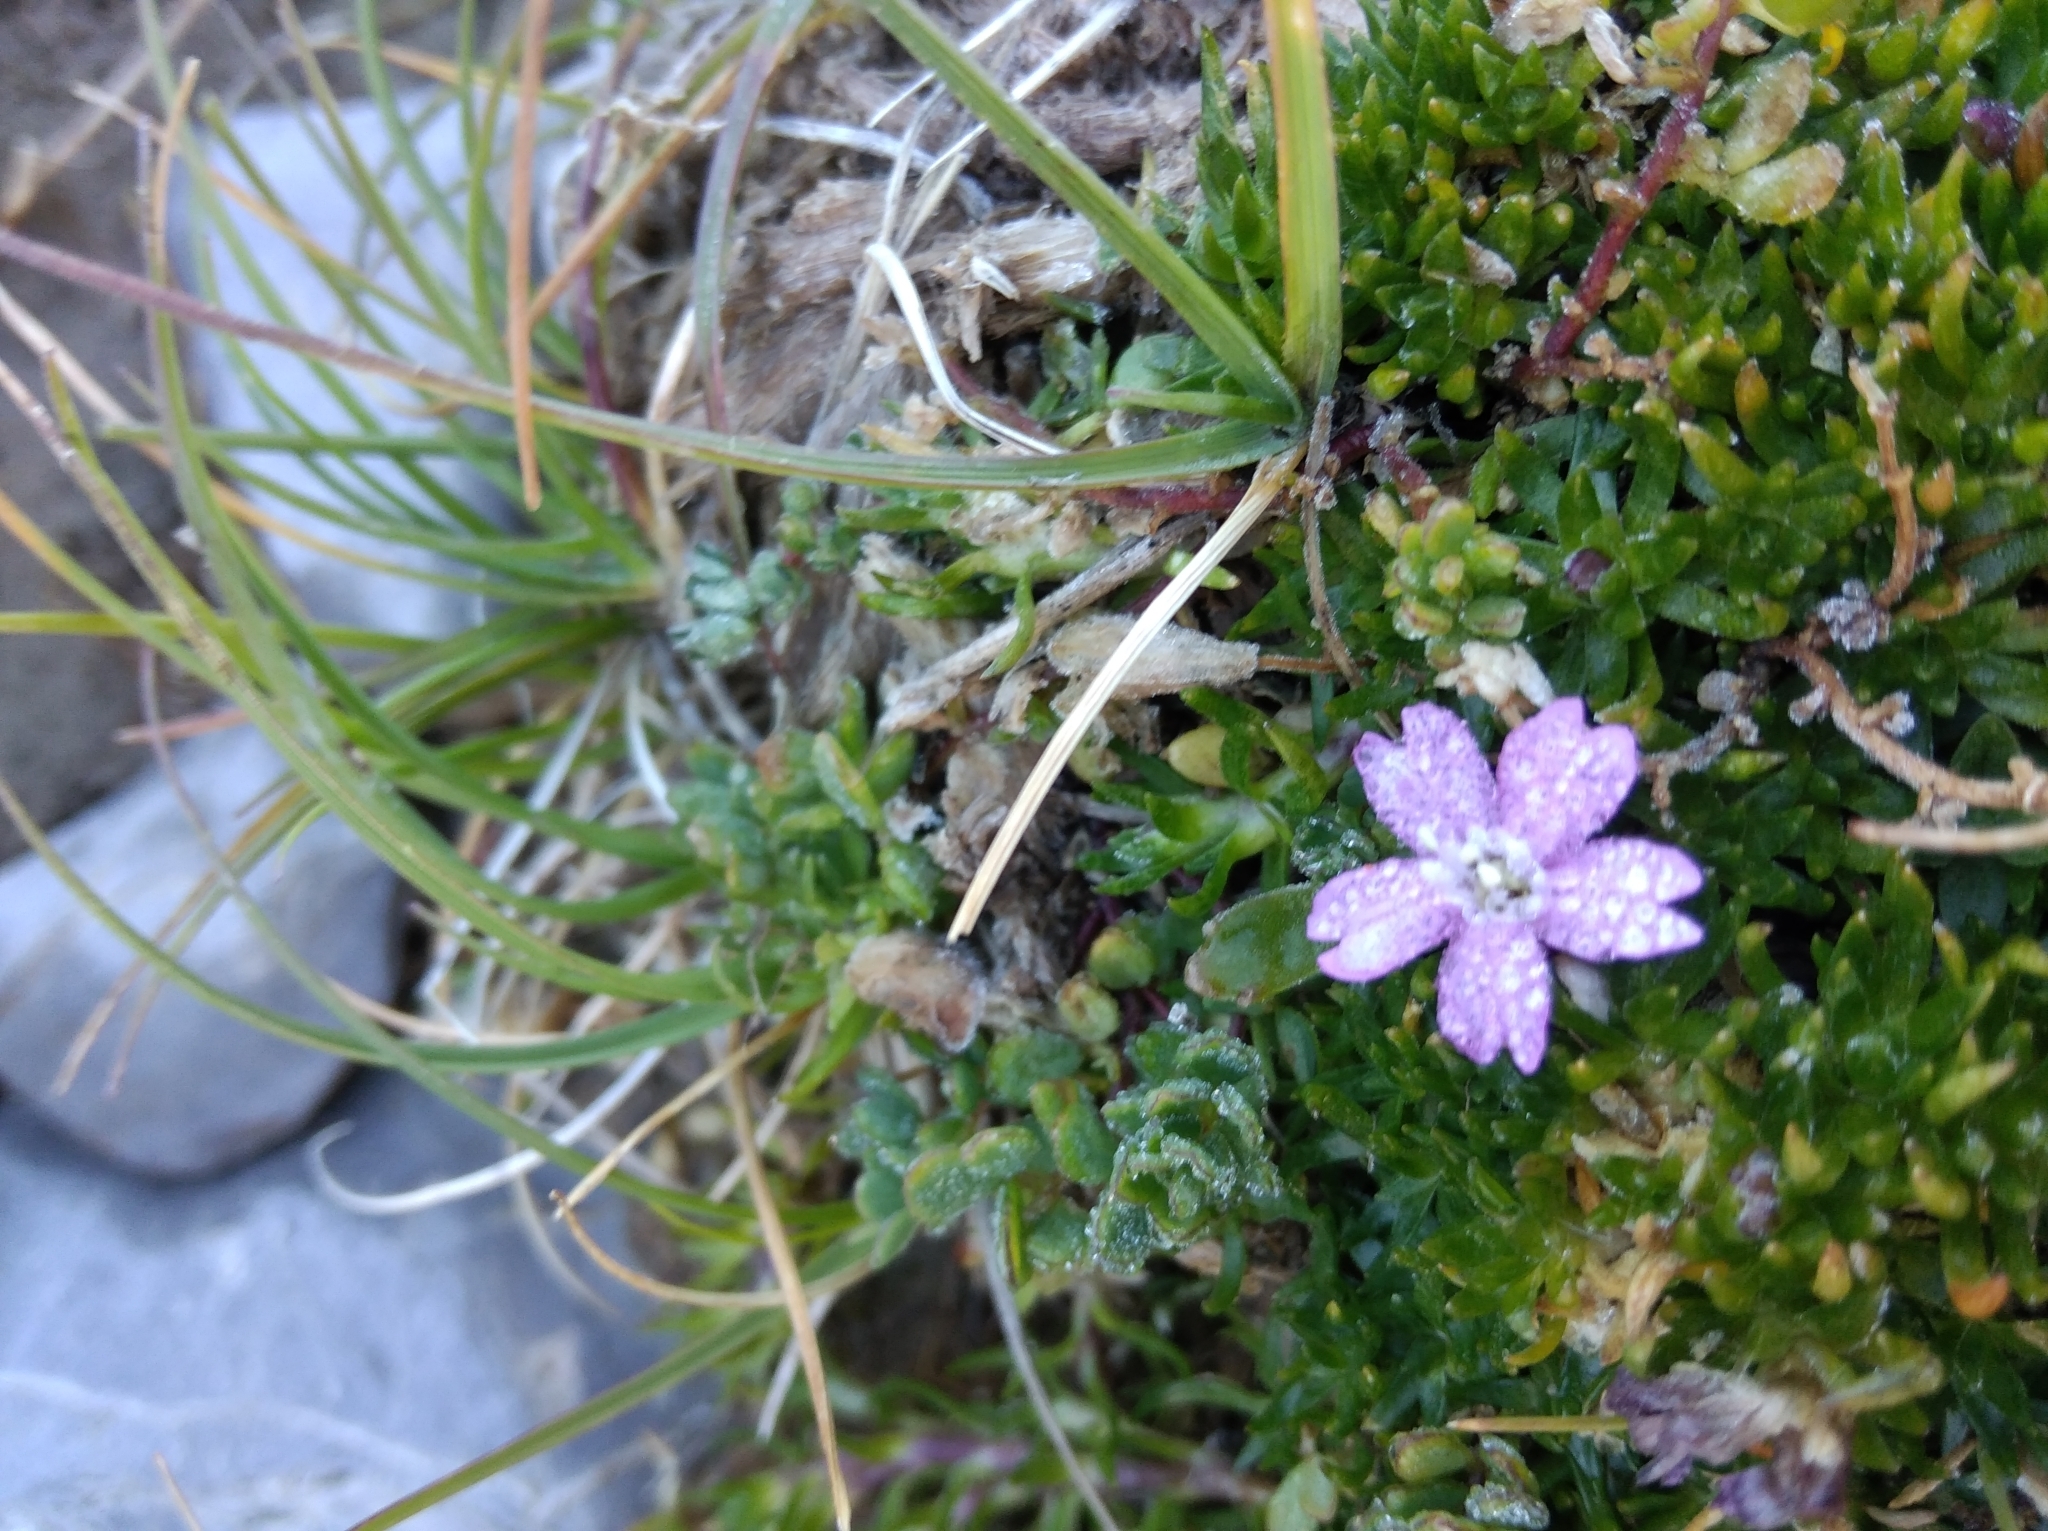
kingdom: Plantae
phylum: Tracheophyta
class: Magnoliopsida
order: Caryophyllales
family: Caryophyllaceae
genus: Silene
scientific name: Silene acaulis
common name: Moss campion
